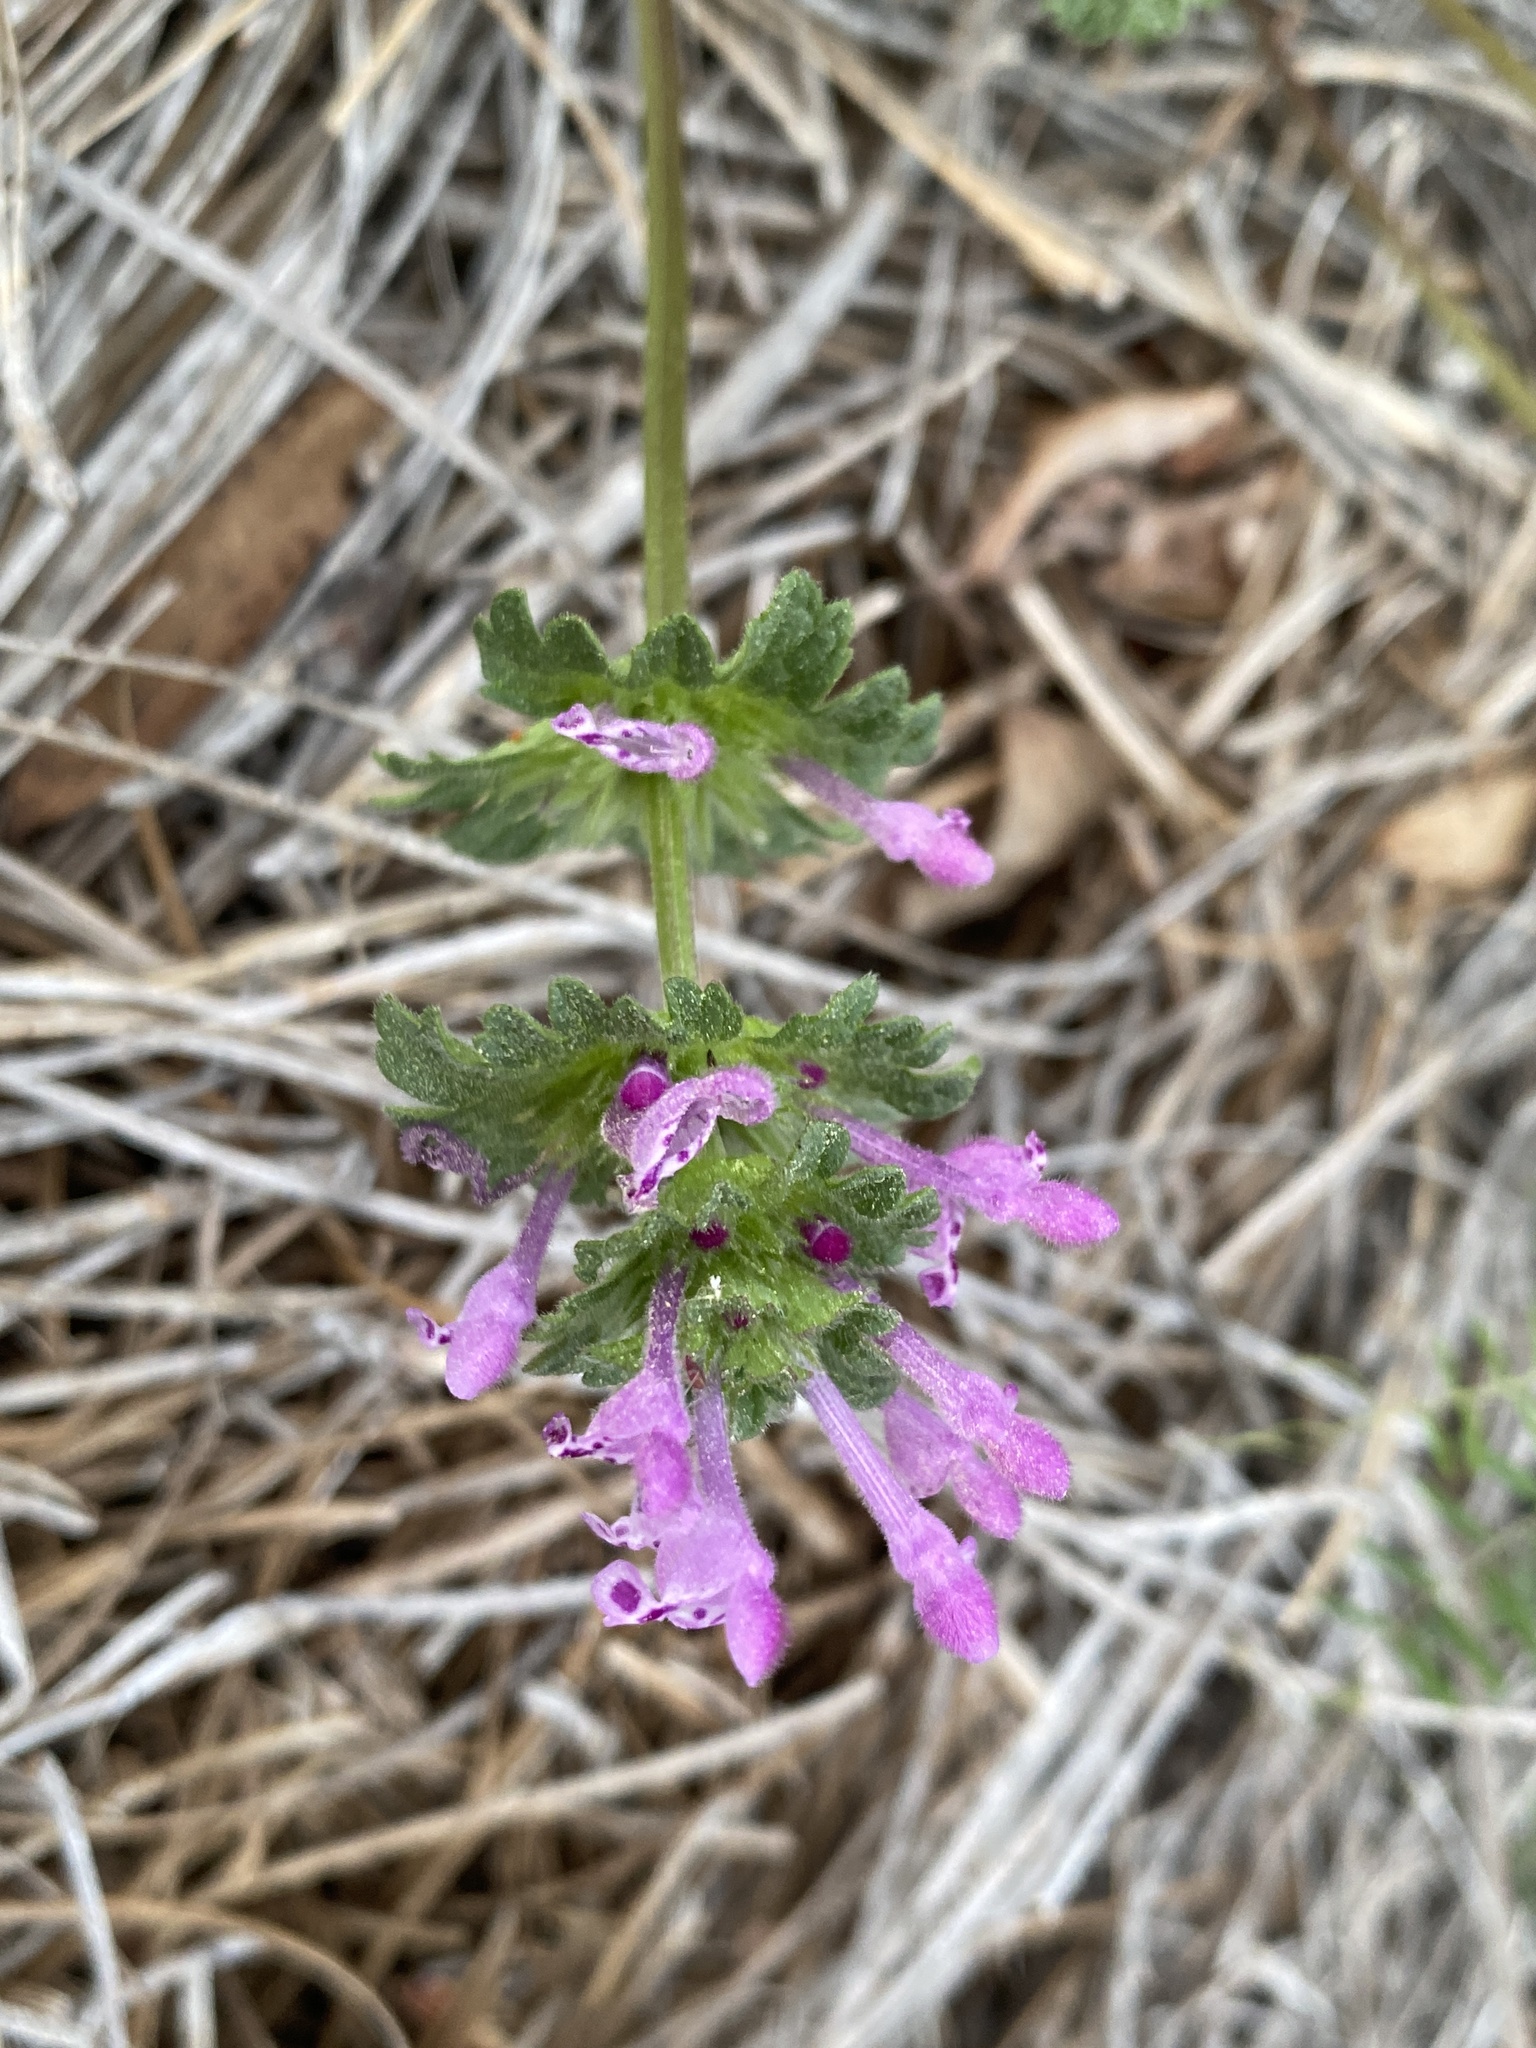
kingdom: Plantae
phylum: Tracheophyta
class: Magnoliopsida
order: Lamiales
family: Lamiaceae
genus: Lamium
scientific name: Lamium amplexicaule
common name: Henbit dead-nettle
